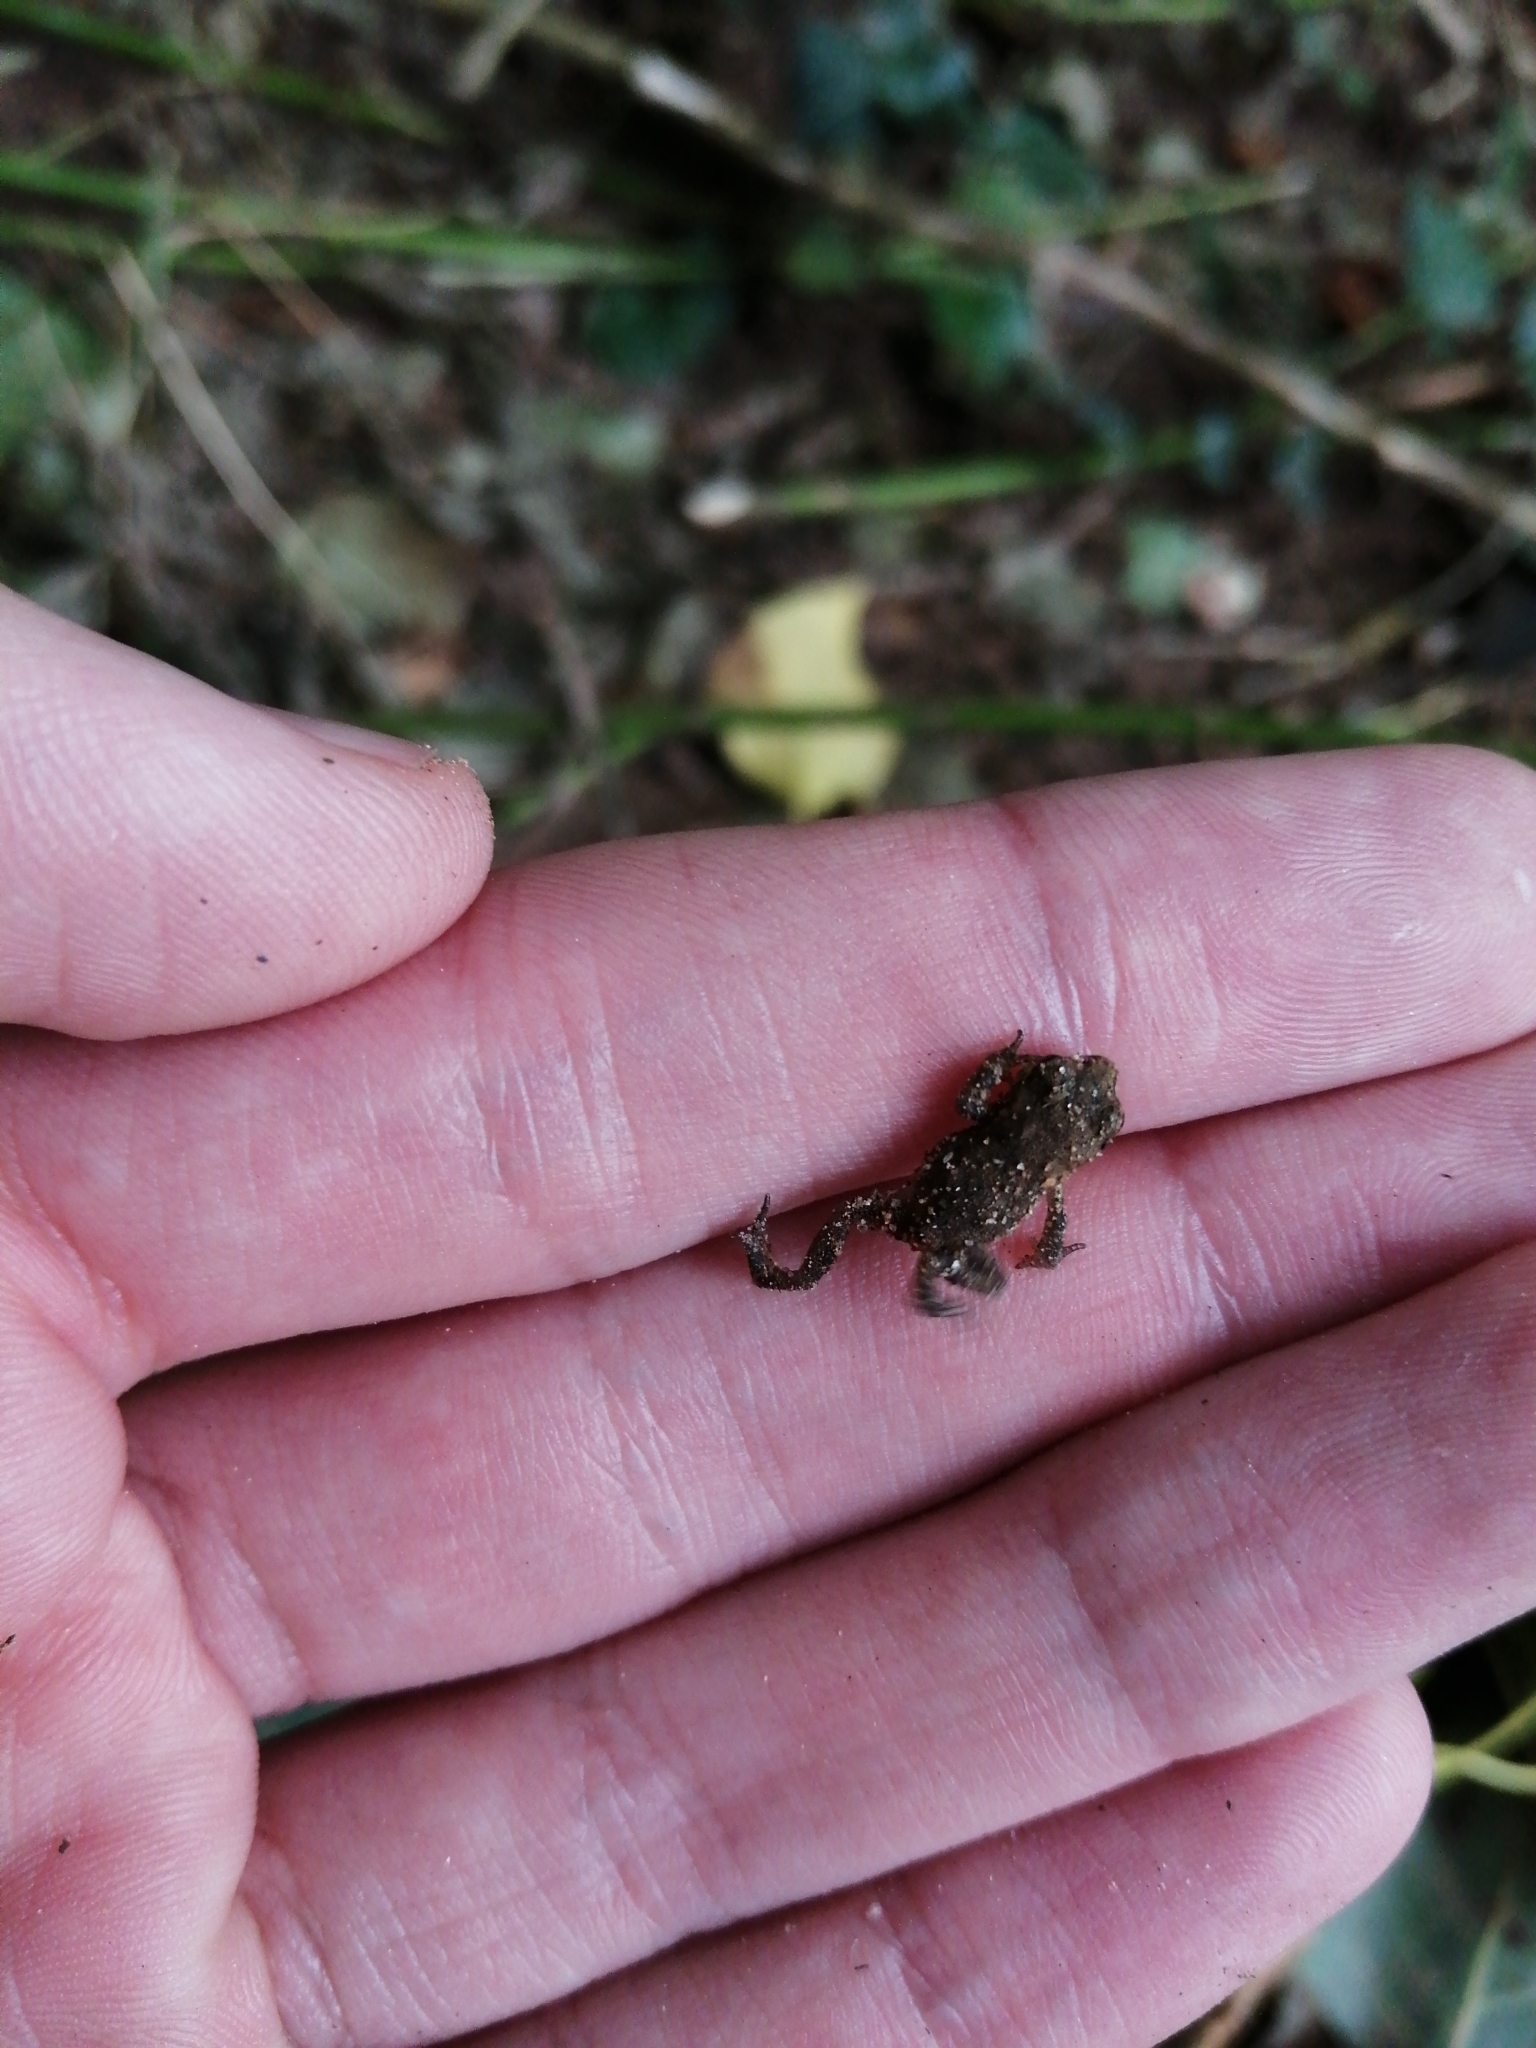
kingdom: Animalia
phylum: Chordata
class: Amphibia
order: Anura
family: Bufonidae
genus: Bufo
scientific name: Bufo spinosus
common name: Western common toad
